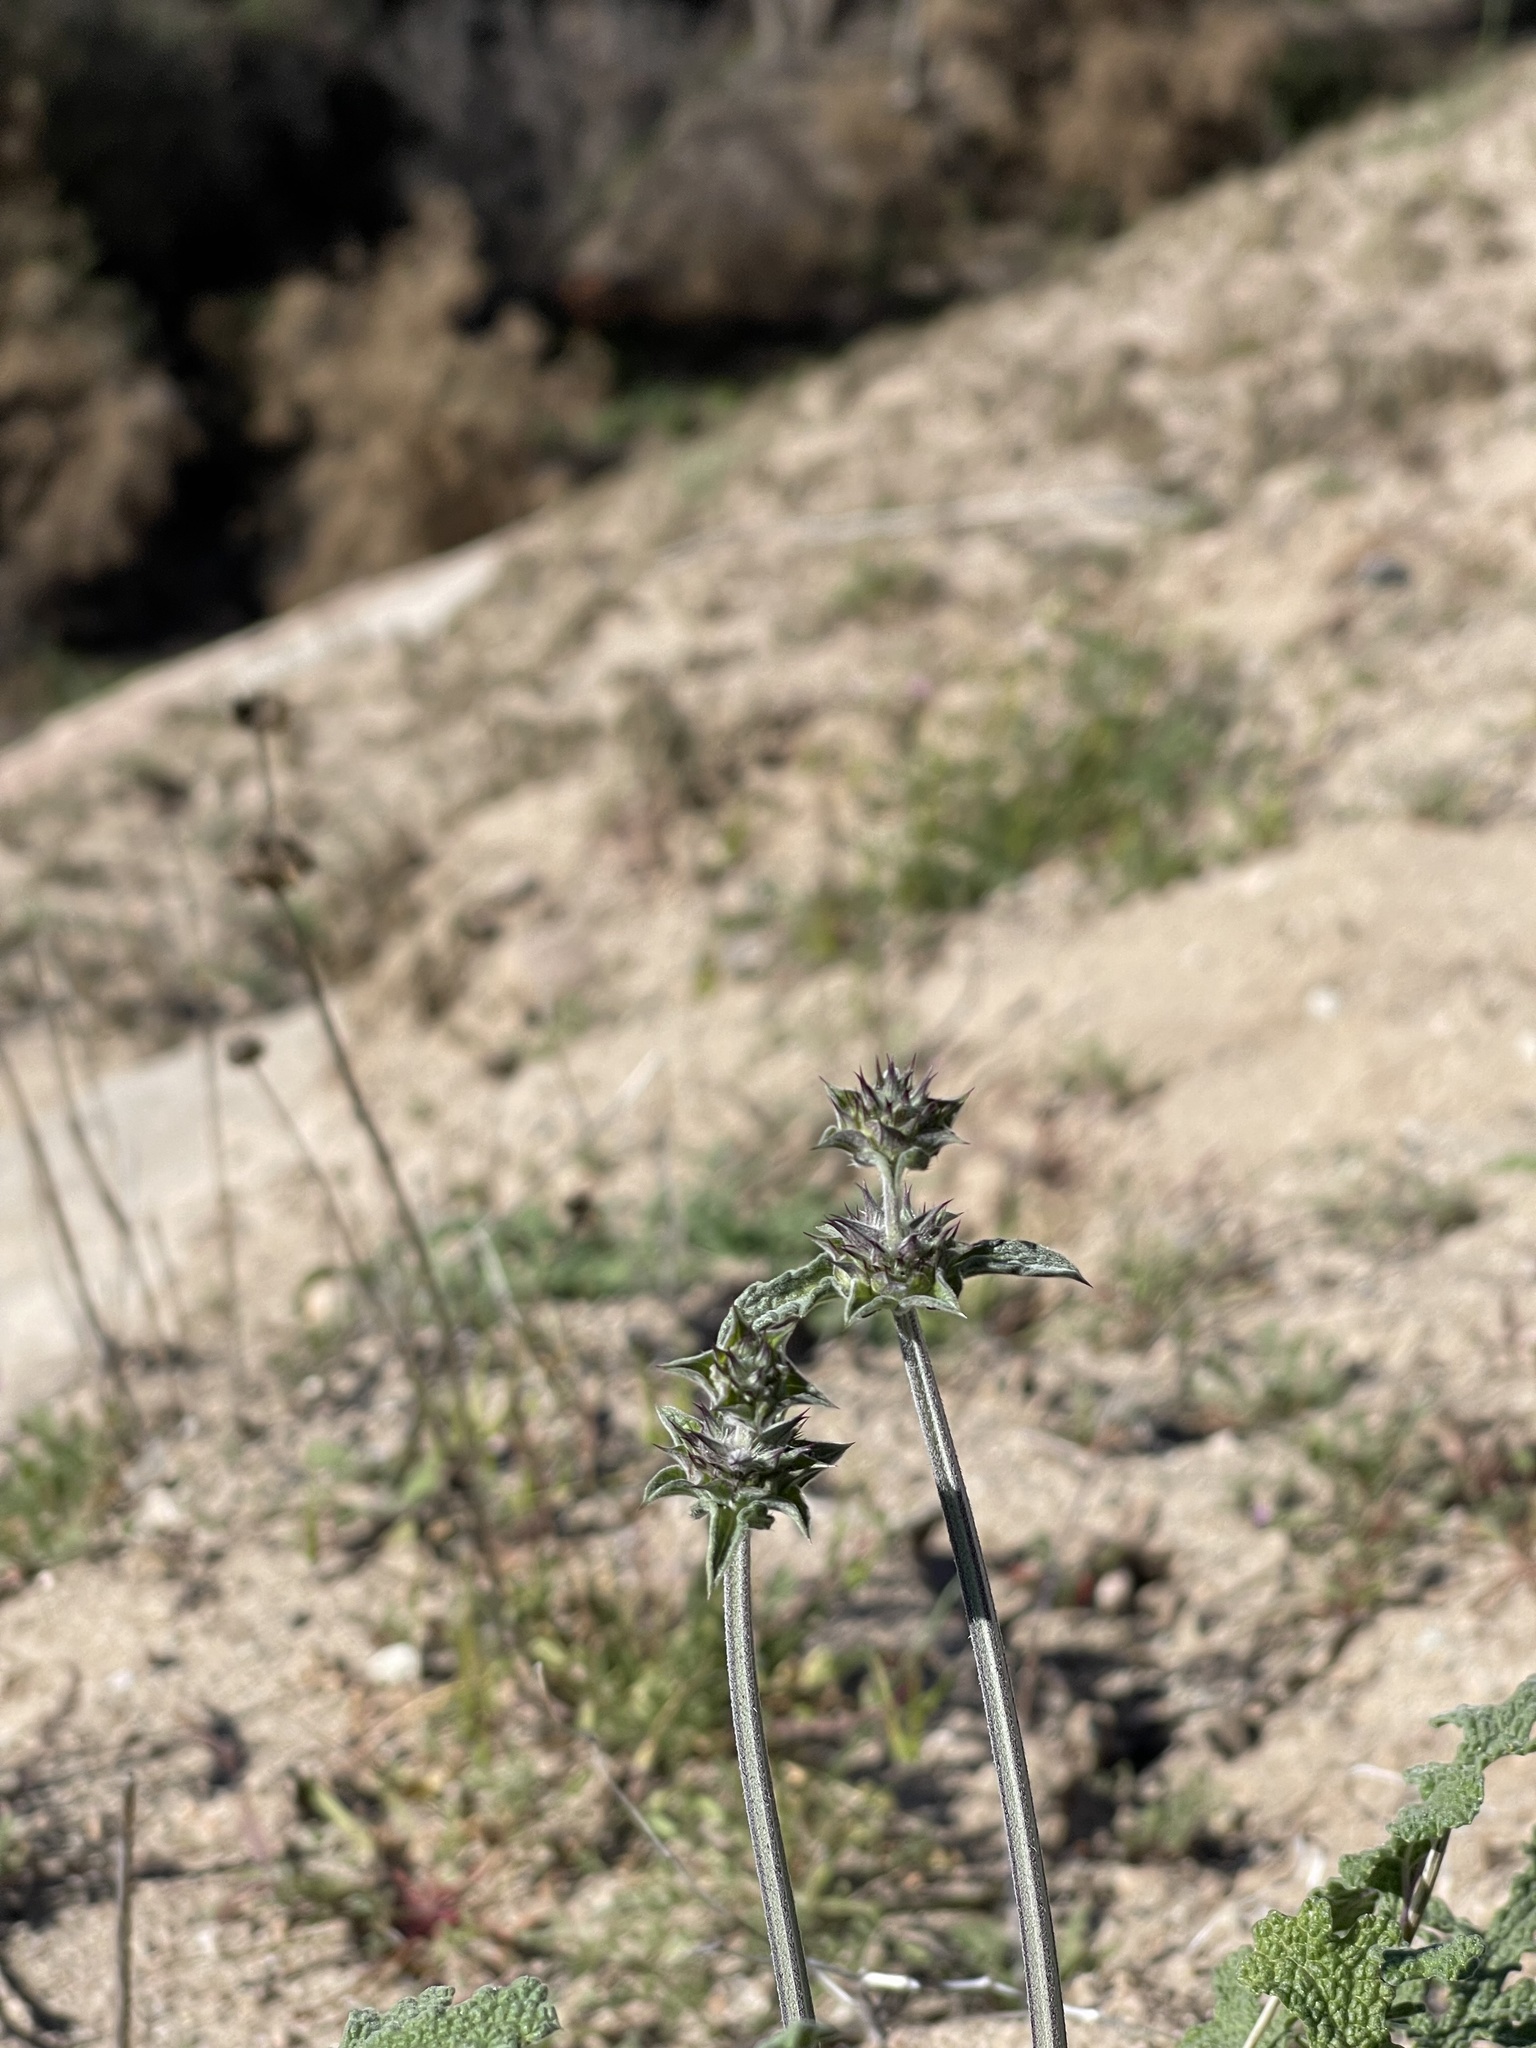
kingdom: Plantae
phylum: Tracheophyta
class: Magnoliopsida
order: Lamiales
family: Lamiaceae
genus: Salvia
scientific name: Salvia columbariae
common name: Chia
